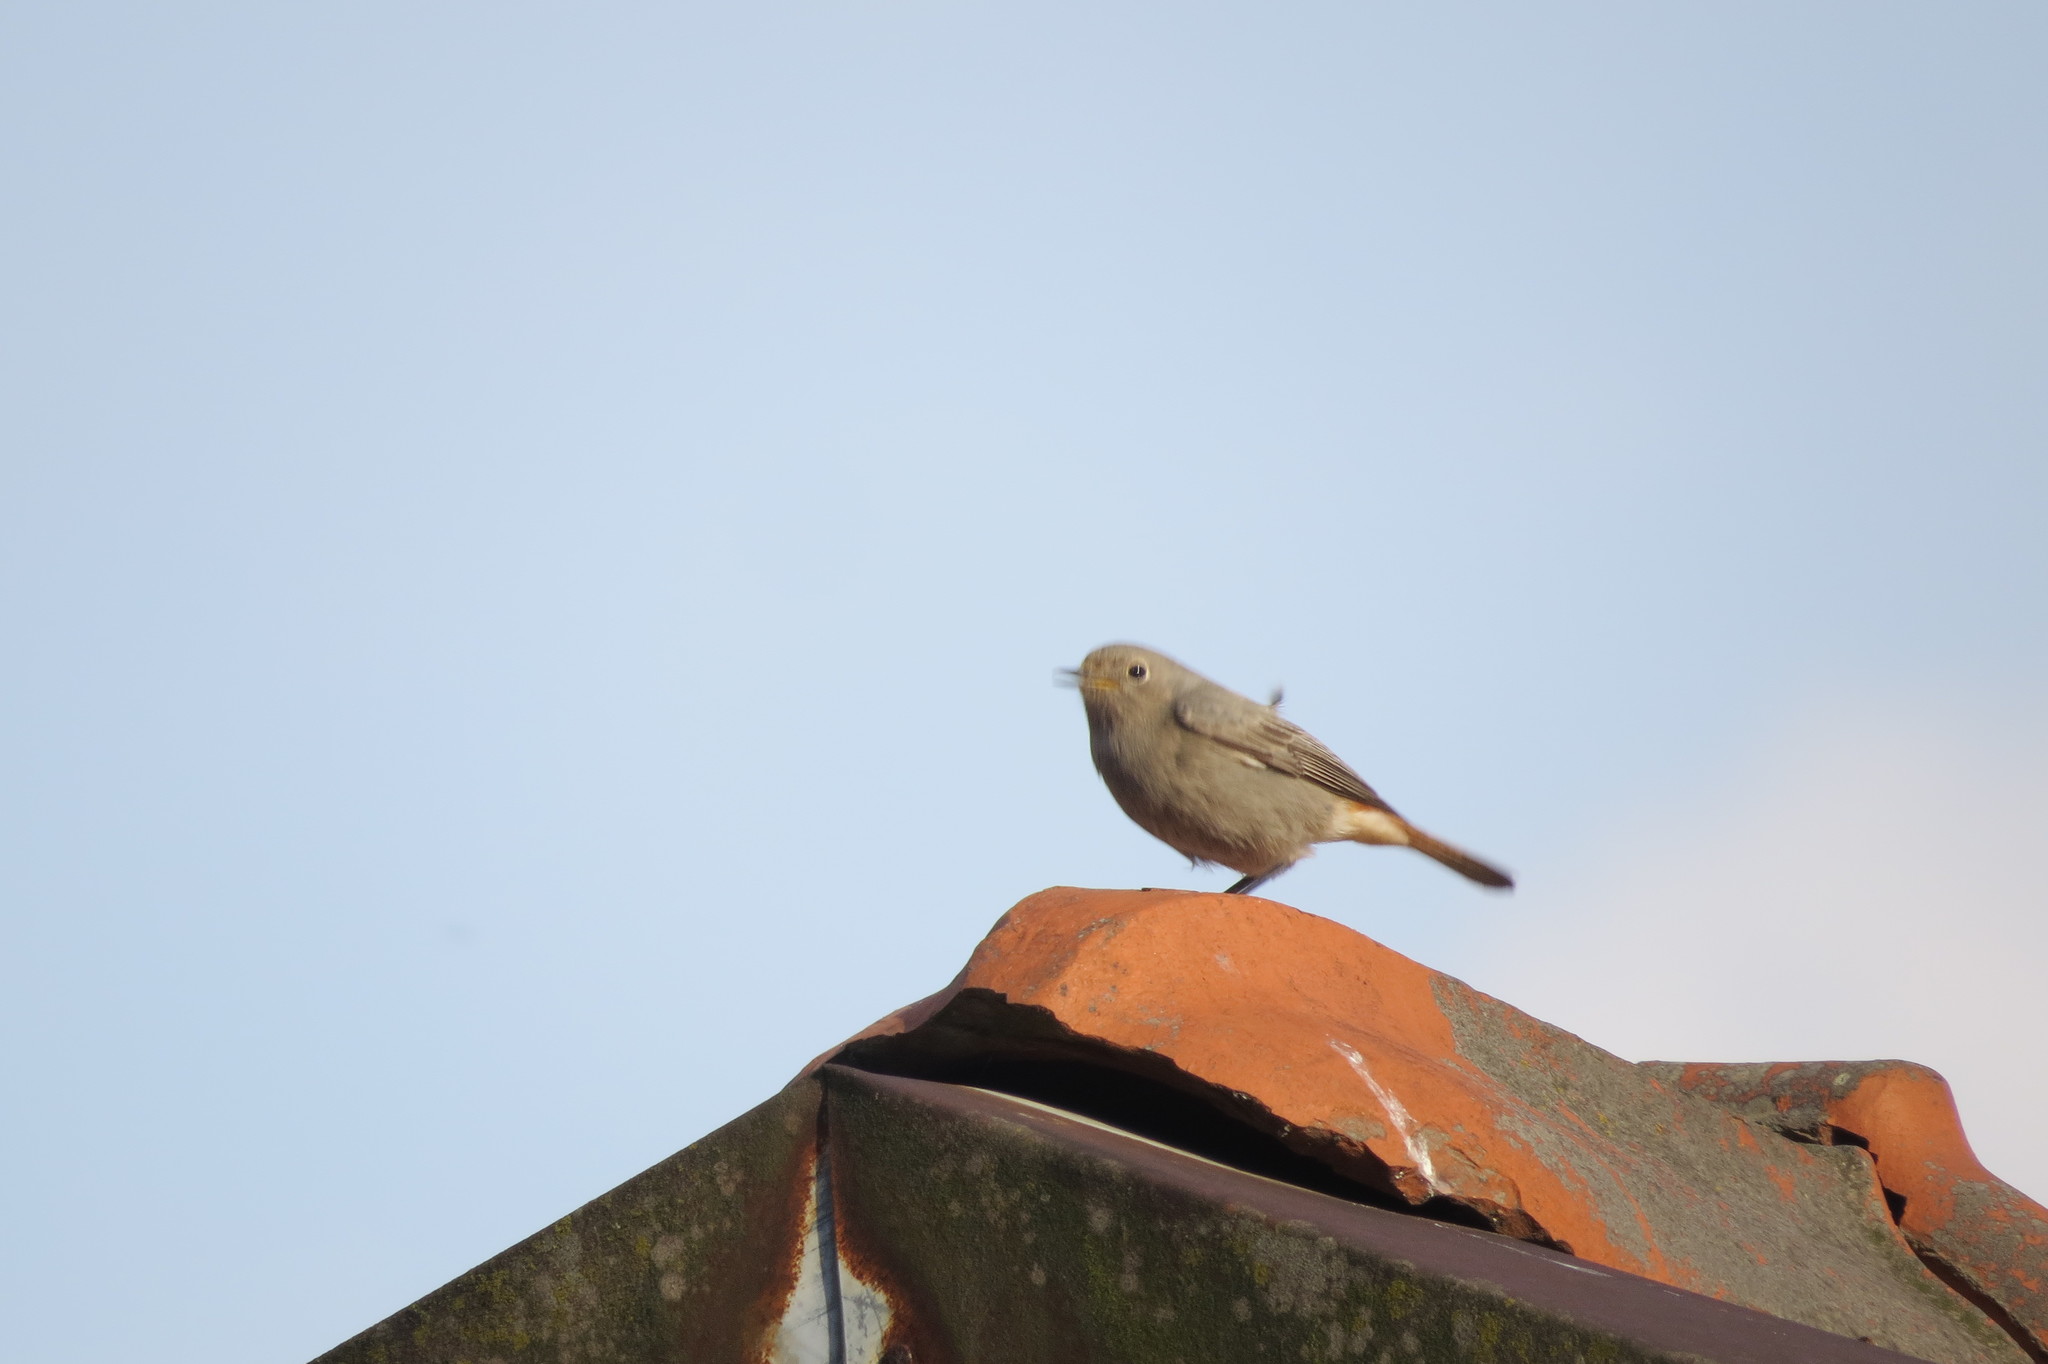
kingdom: Animalia
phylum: Chordata
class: Aves
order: Passeriformes
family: Muscicapidae
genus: Phoenicurus
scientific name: Phoenicurus ochruros
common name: Black redstart
